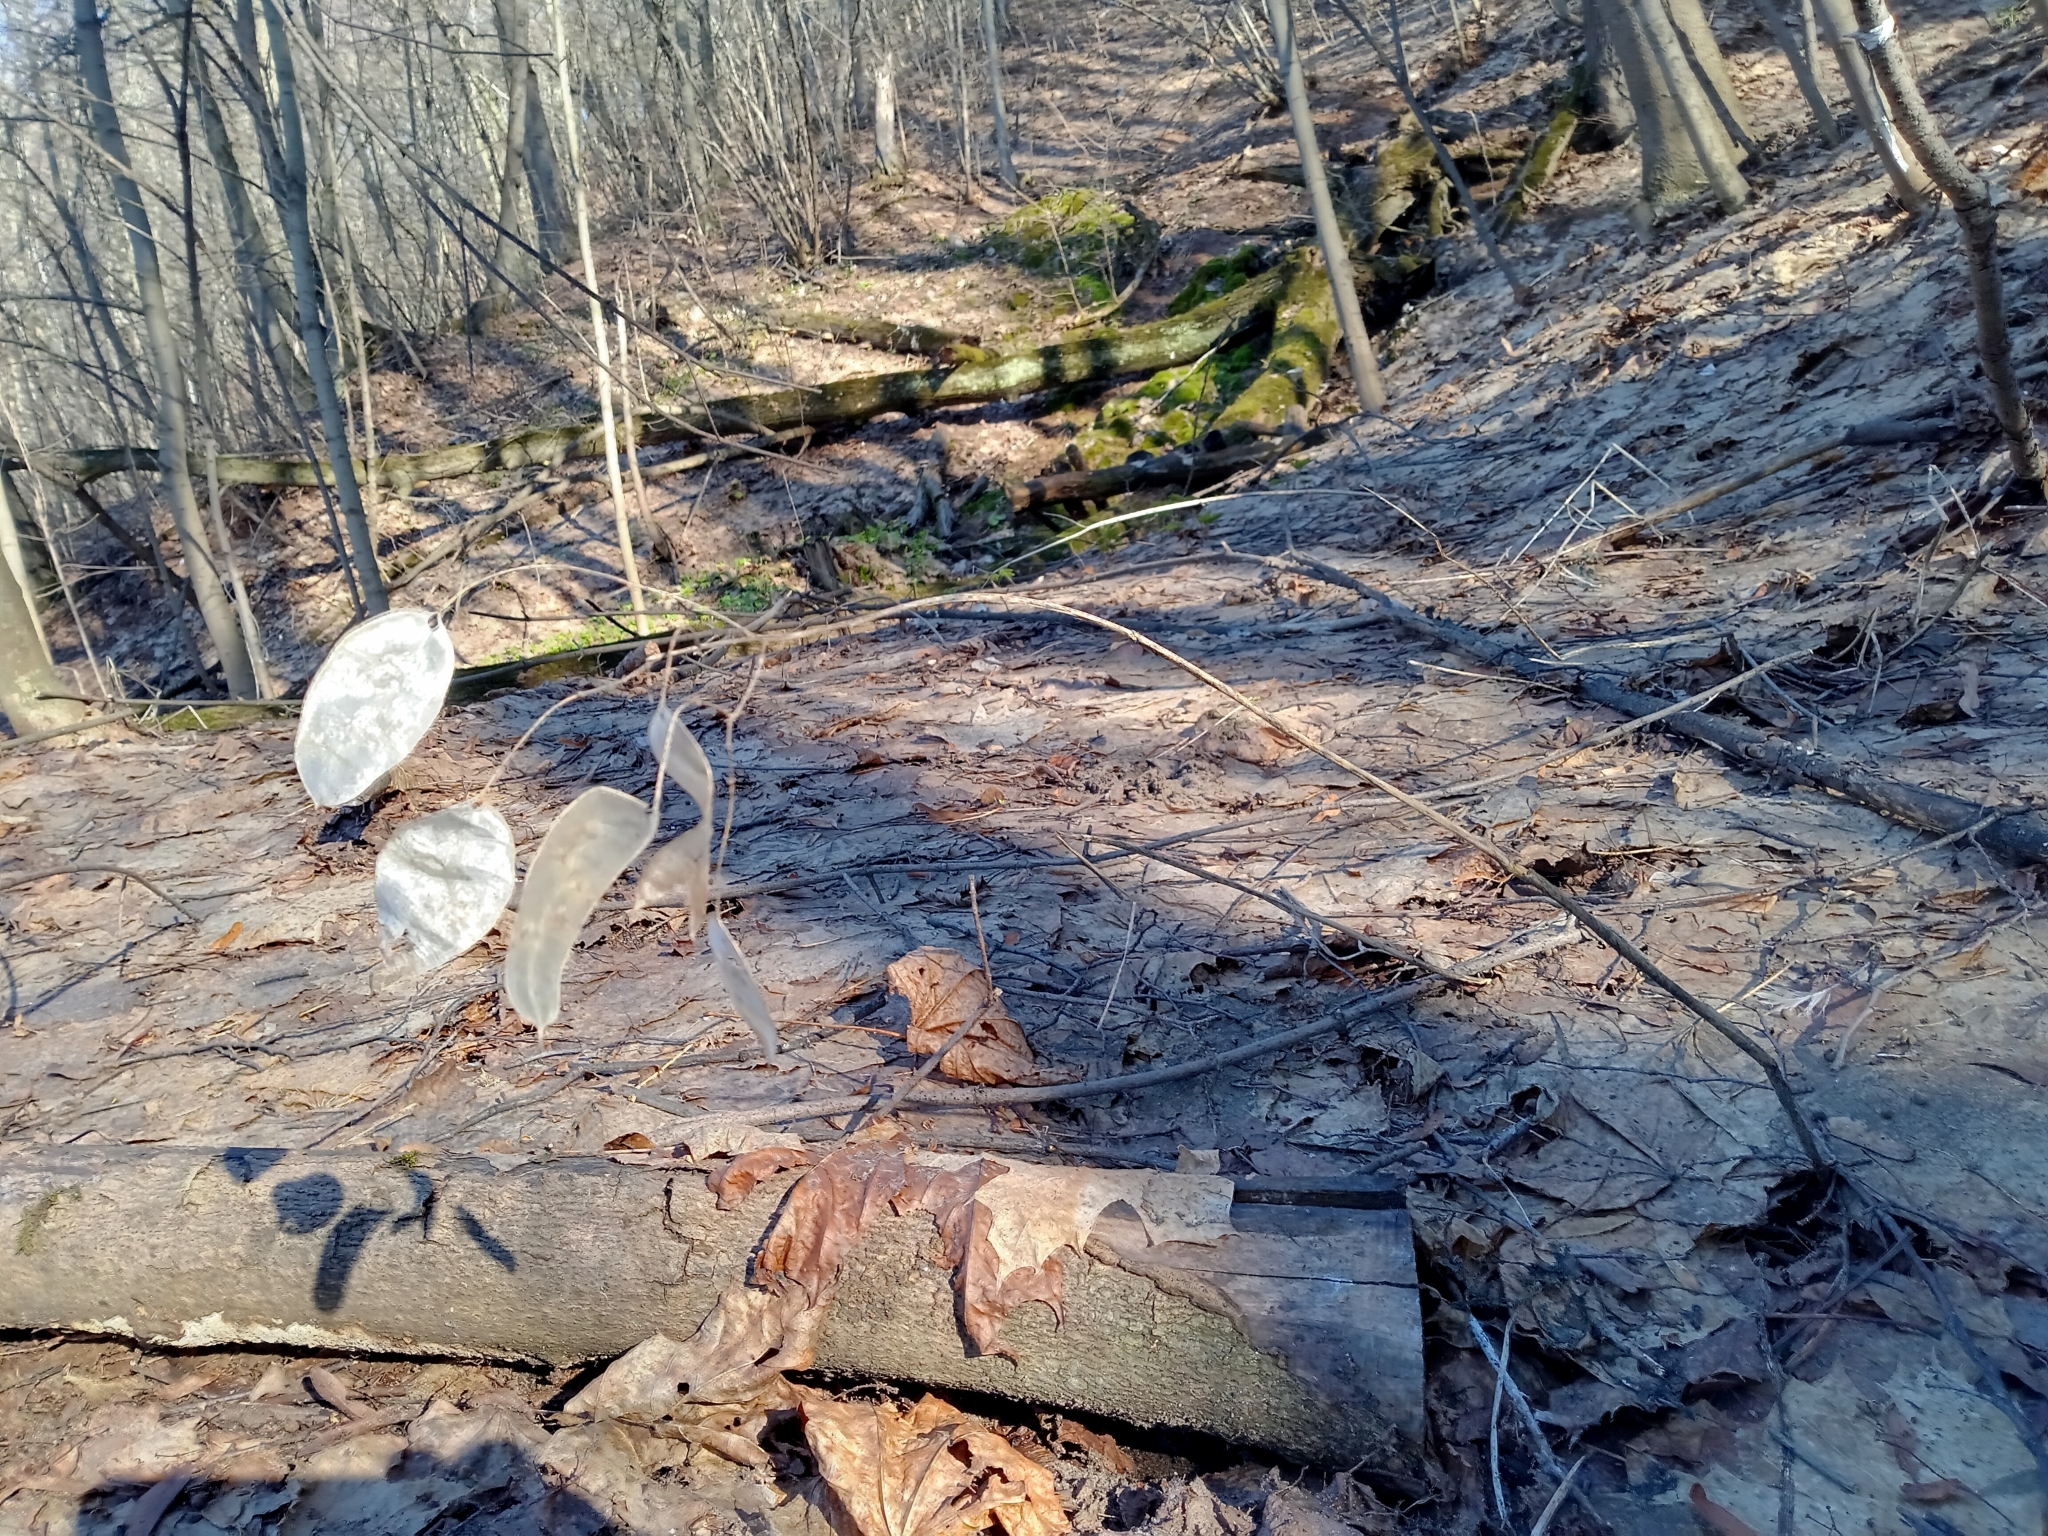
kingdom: Plantae
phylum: Tracheophyta
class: Magnoliopsida
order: Brassicales
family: Brassicaceae
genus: Lunaria
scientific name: Lunaria rediviva
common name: Perennial honesty
